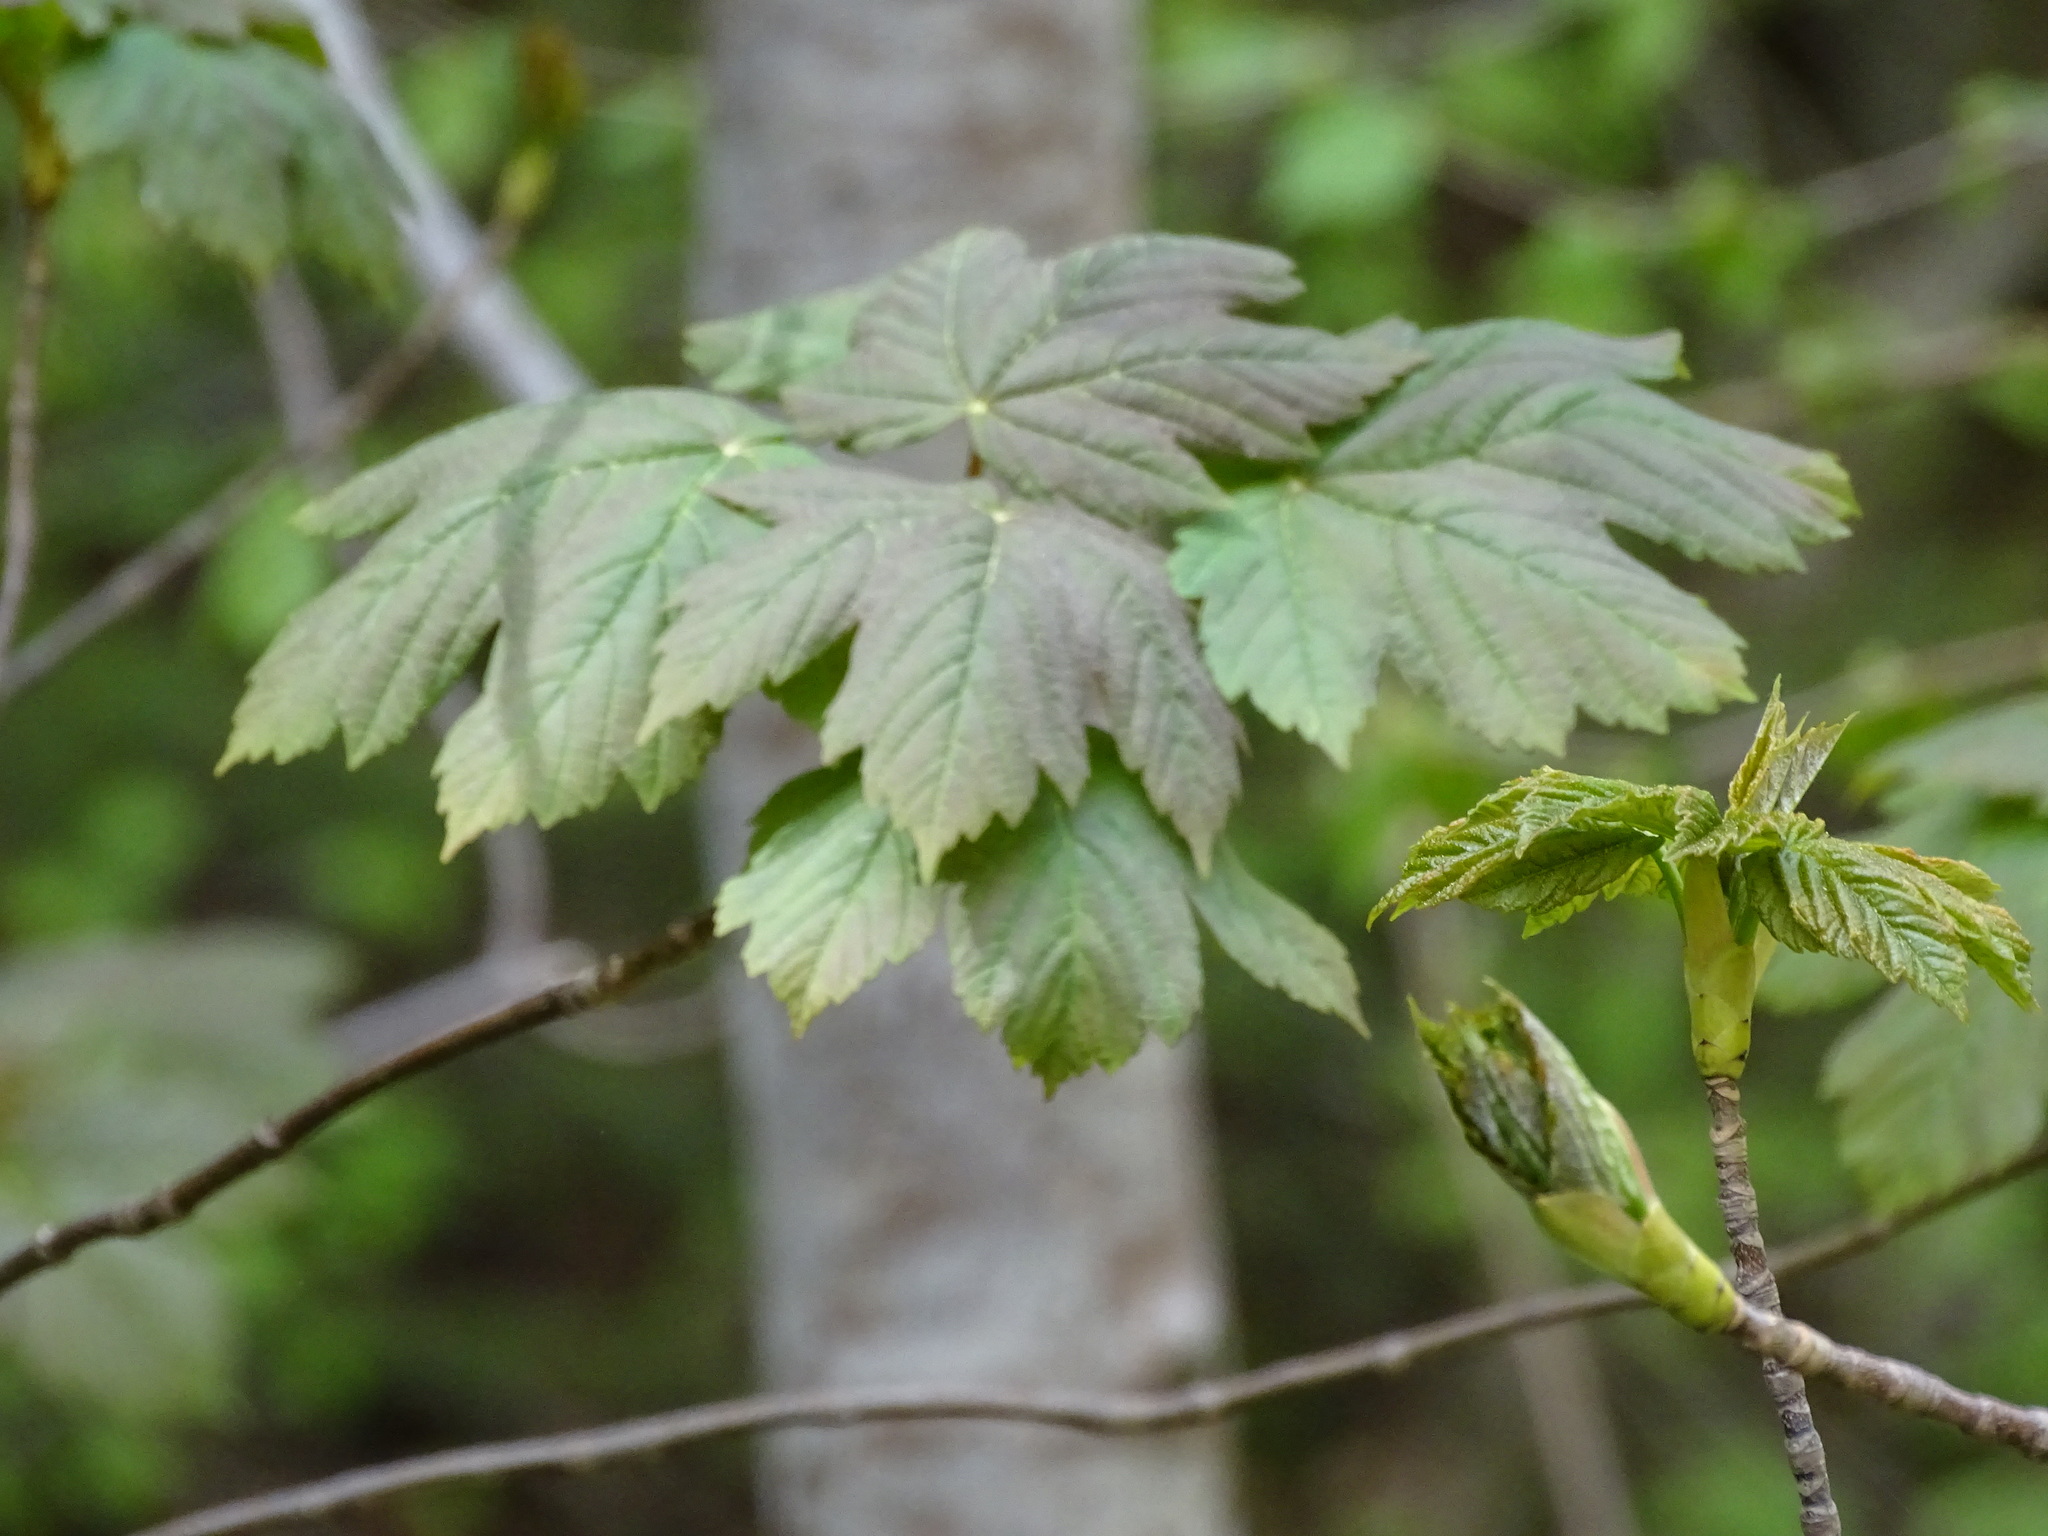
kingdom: Plantae
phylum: Tracheophyta
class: Magnoliopsida
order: Sapindales
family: Sapindaceae
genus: Acer
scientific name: Acer pseudoplatanus
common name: Sycamore
